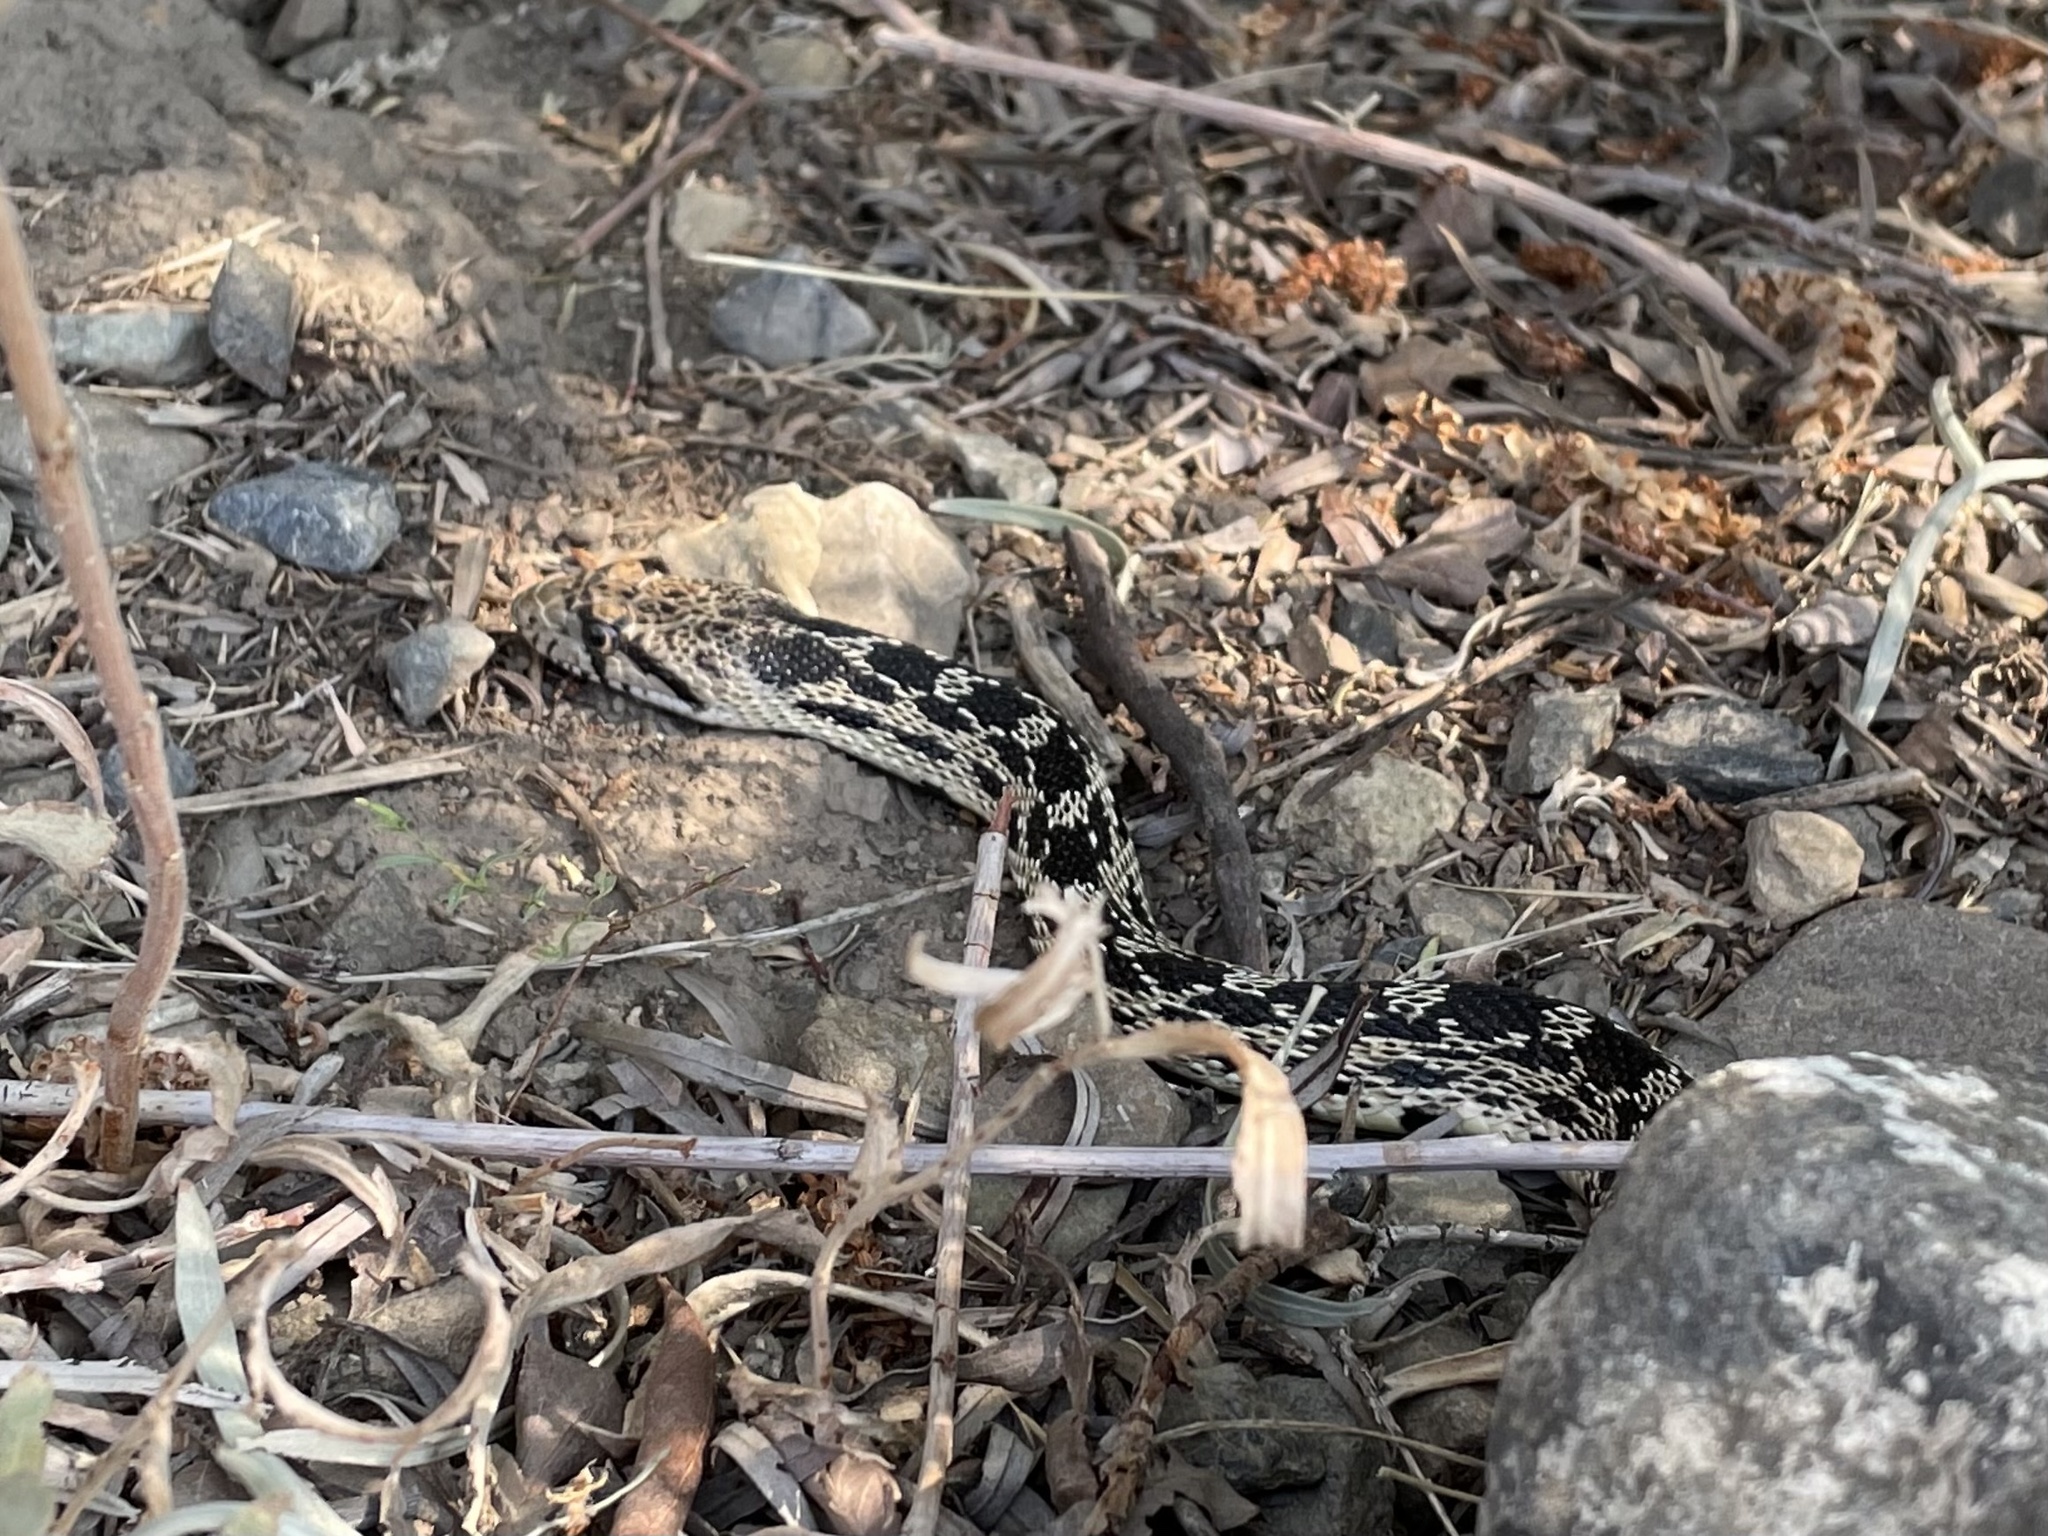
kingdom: Animalia
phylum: Chordata
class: Squamata
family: Colubridae
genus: Pituophis
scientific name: Pituophis catenifer
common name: Gopher snake
